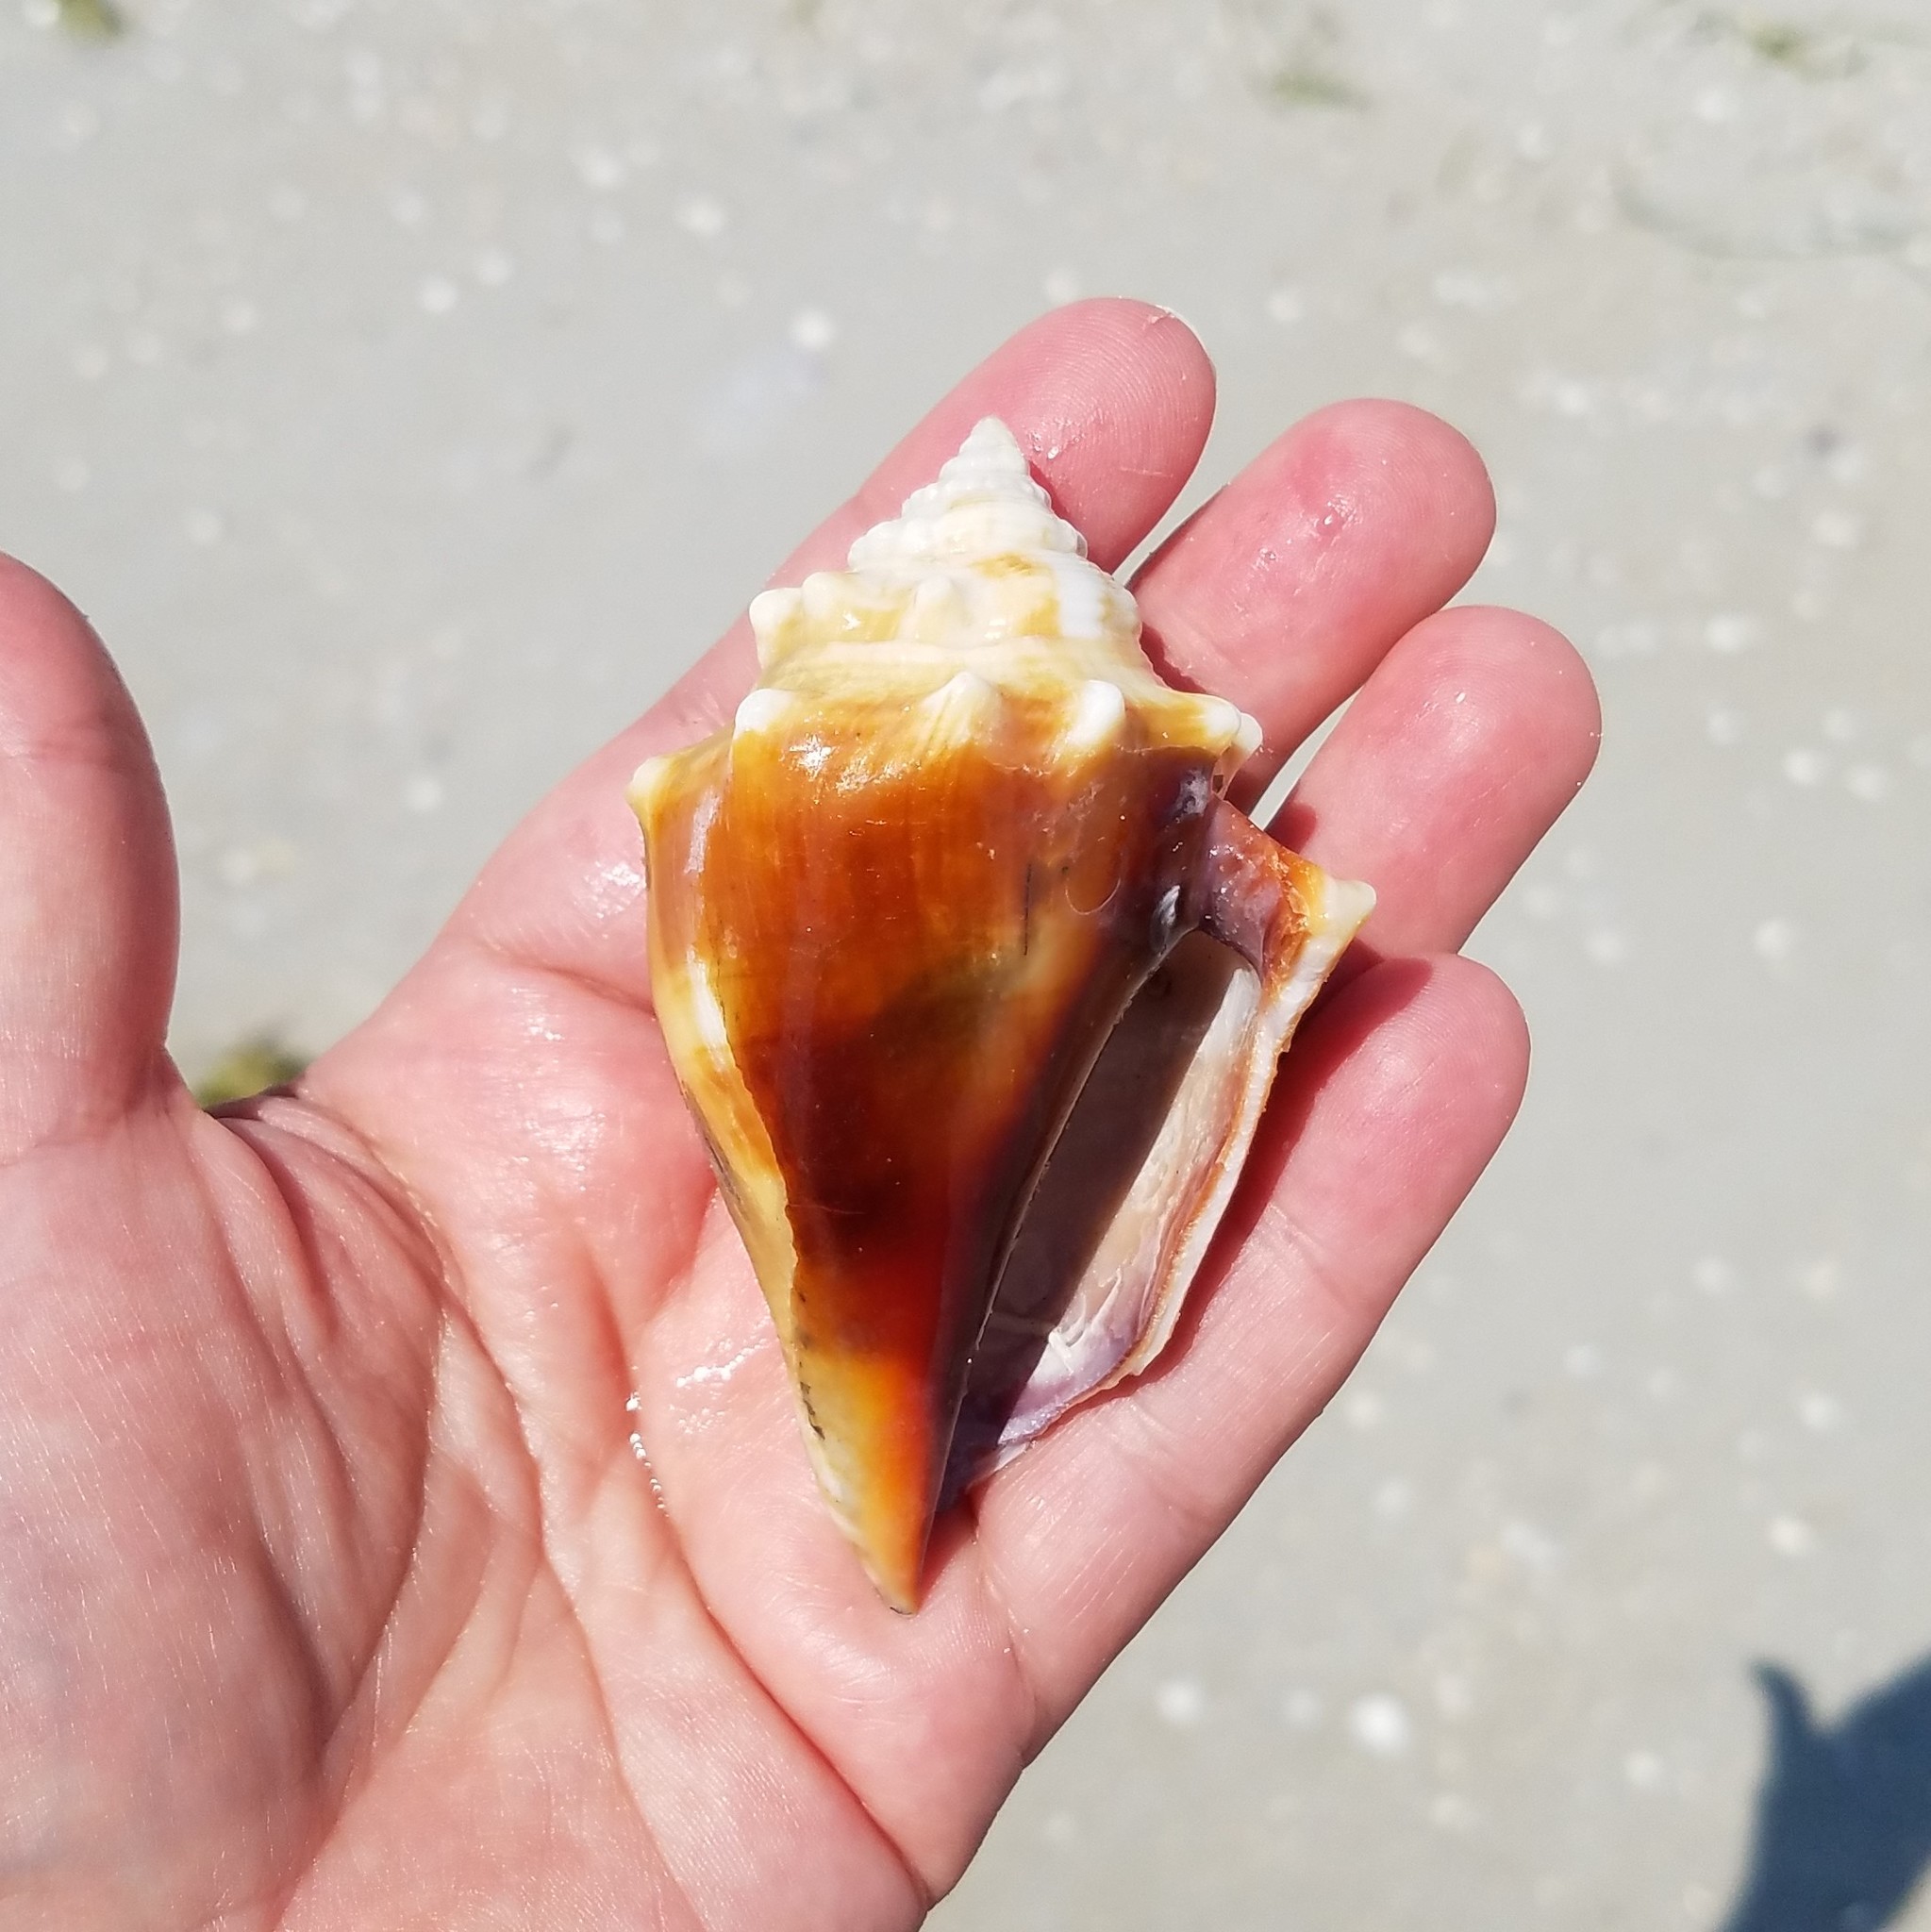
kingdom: Animalia
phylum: Mollusca
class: Gastropoda
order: Littorinimorpha
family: Strombidae
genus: Strombus
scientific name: Strombus alatus
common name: Florida fighting conch
